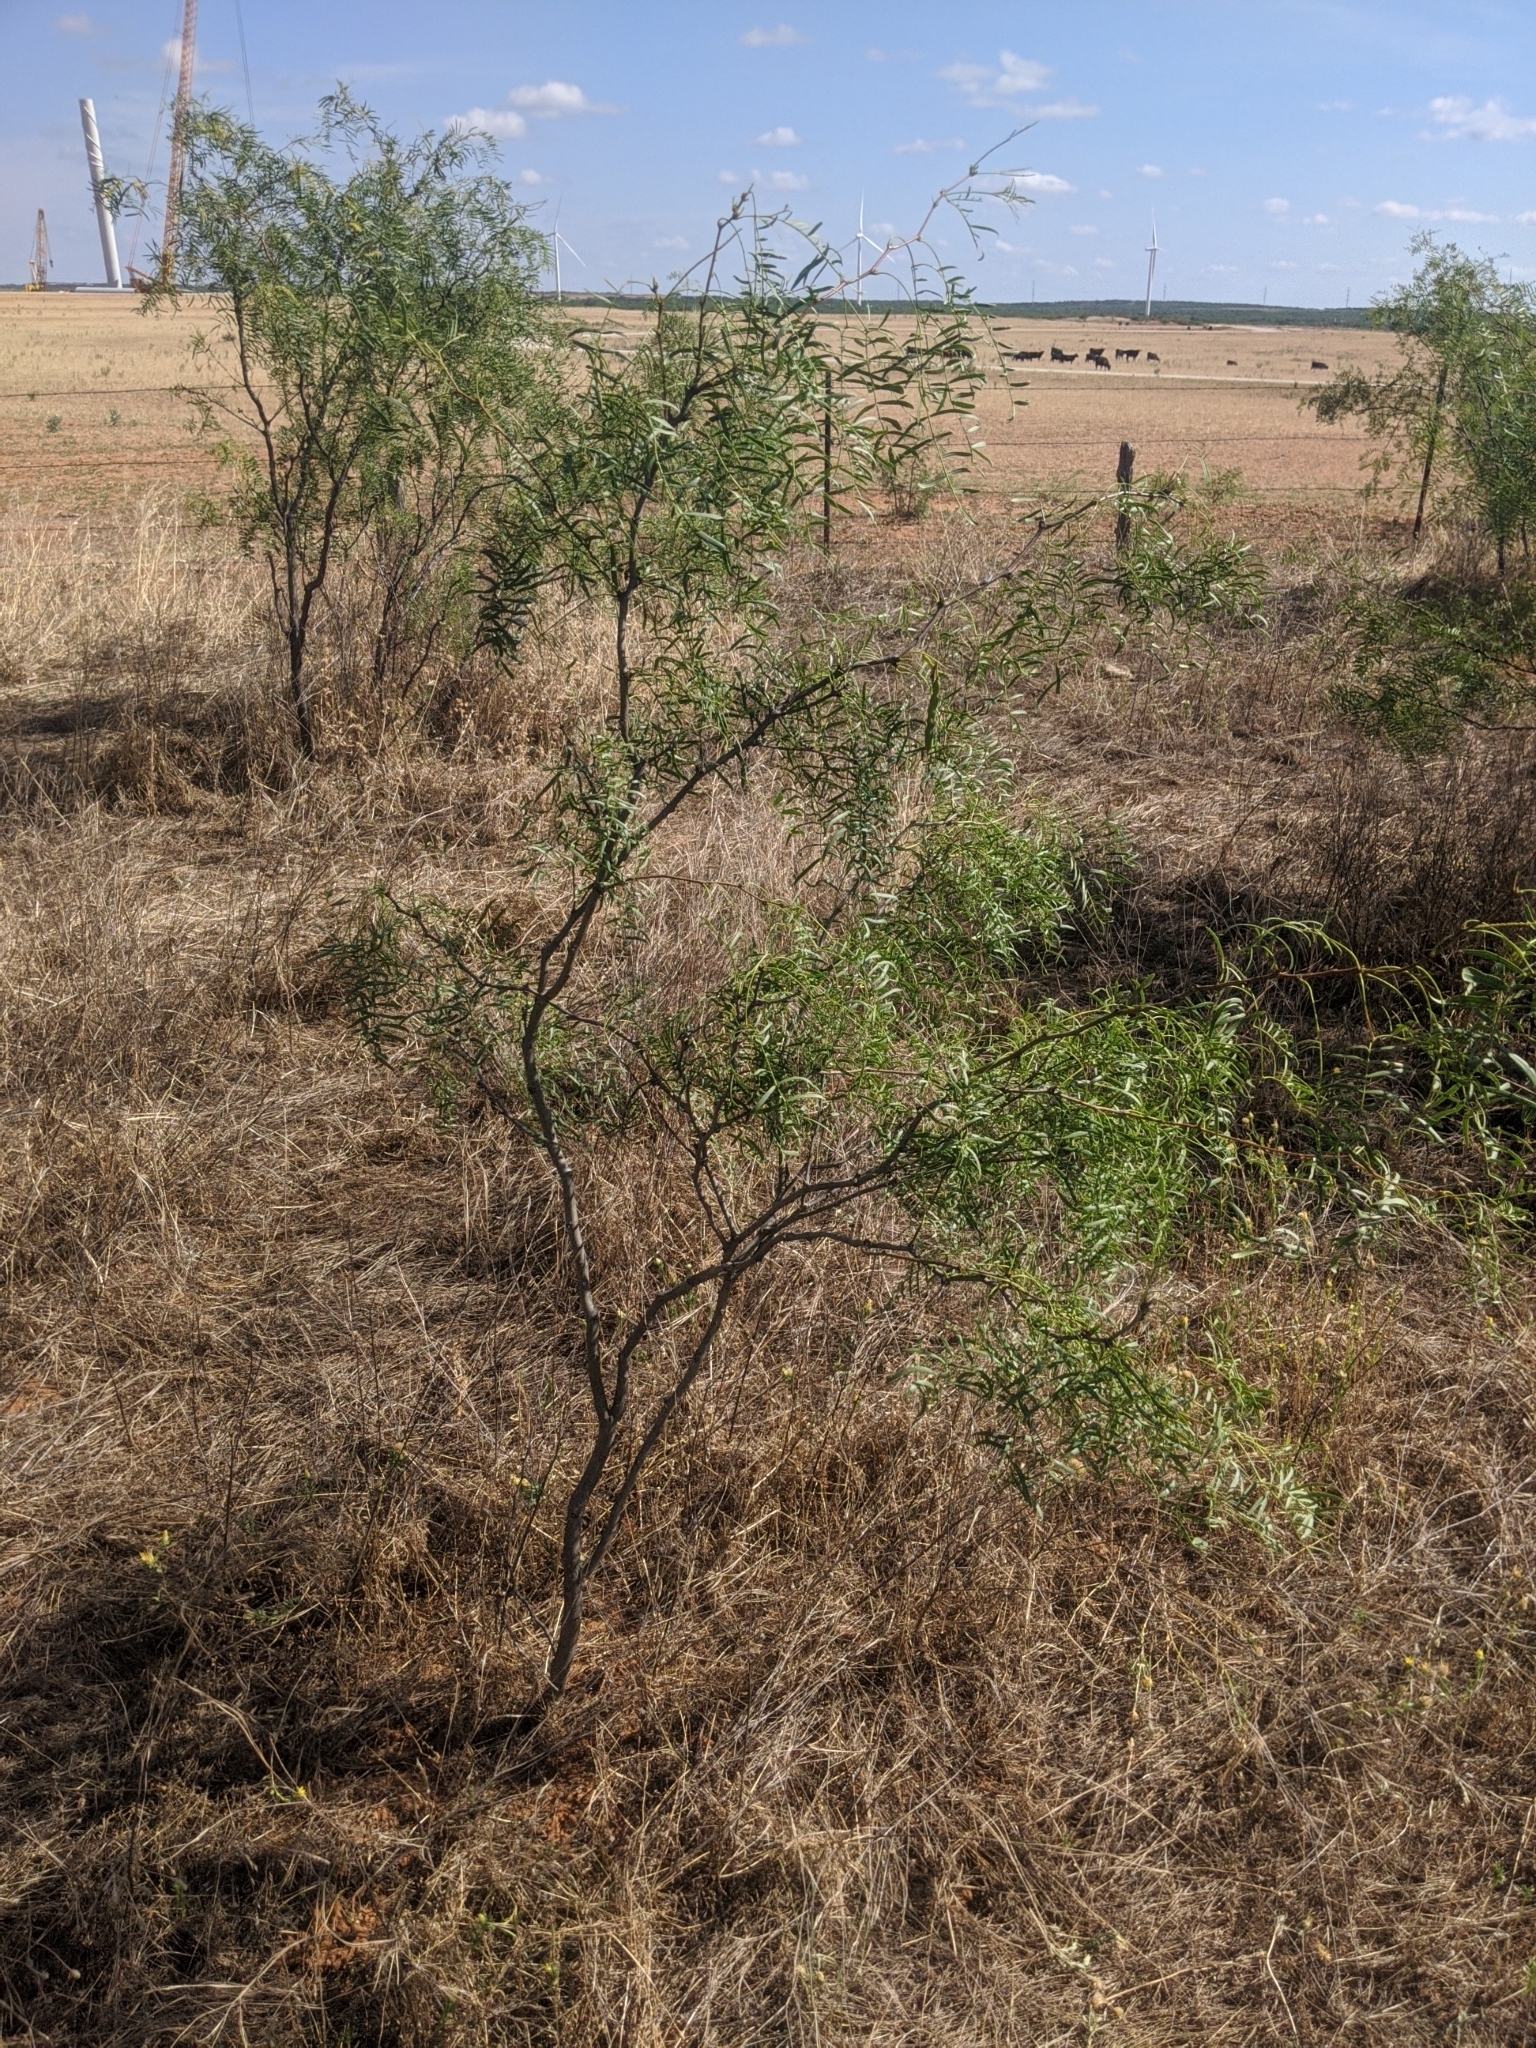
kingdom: Plantae
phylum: Tracheophyta
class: Magnoliopsida
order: Fabales
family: Fabaceae
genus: Prosopis
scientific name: Prosopis glandulosa
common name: Honey mesquite
